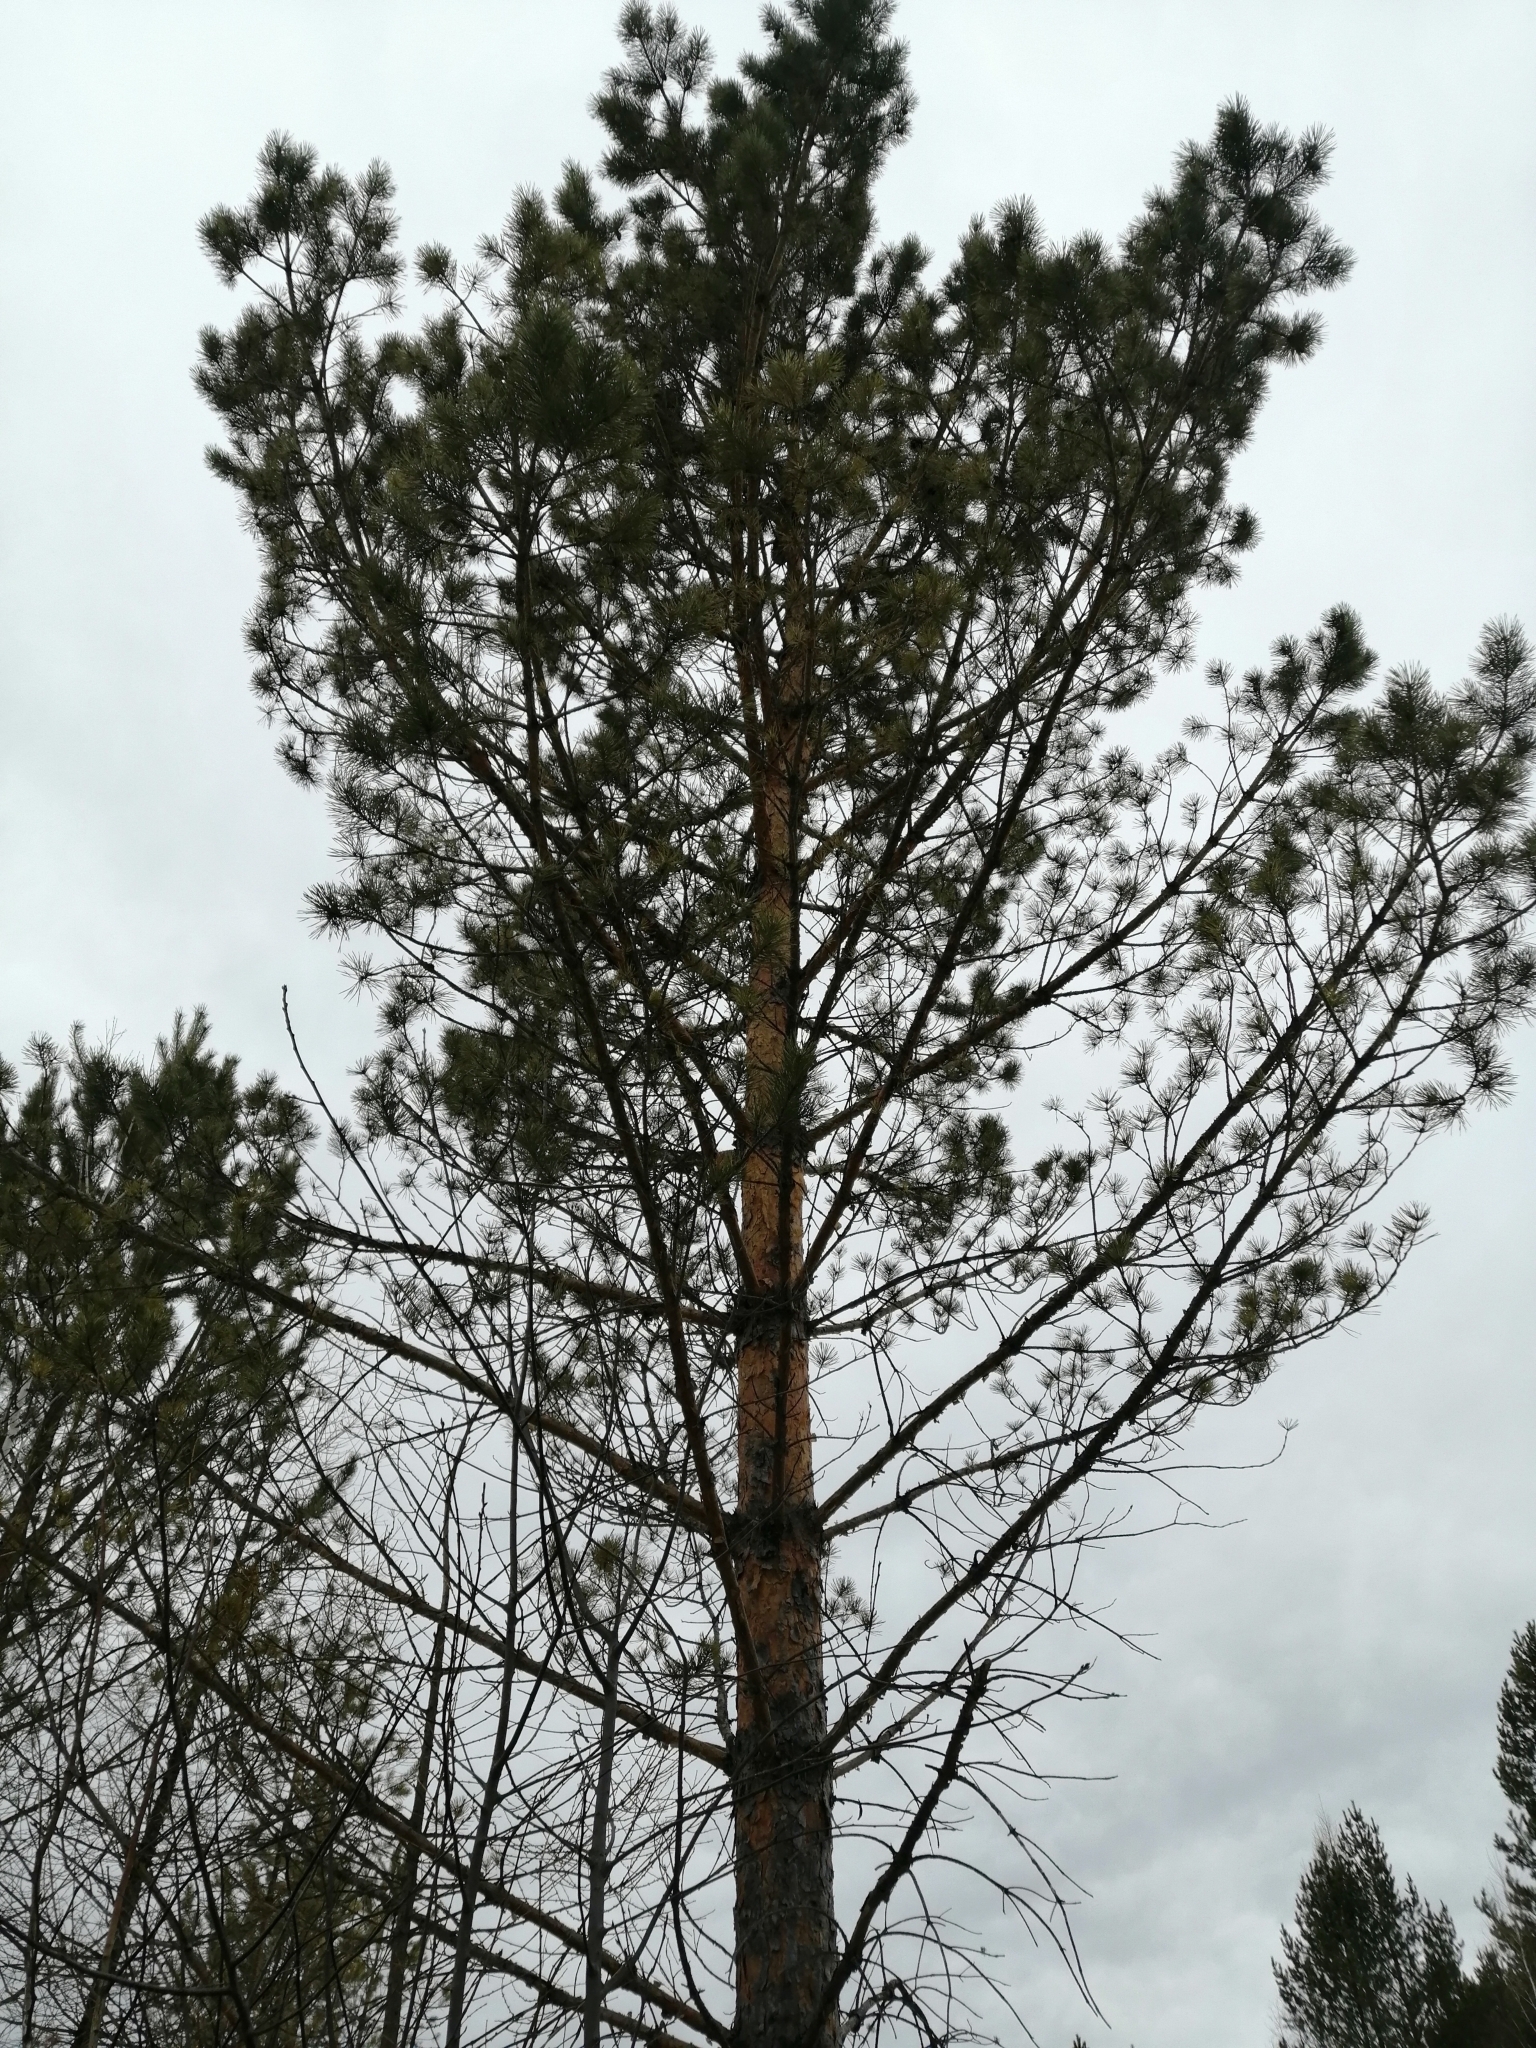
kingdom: Plantae
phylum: Tracheophyta
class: Pinopsida
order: Pinales
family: Pinaceae
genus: Pinus
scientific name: Pinus sylvestris
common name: Scots pine
